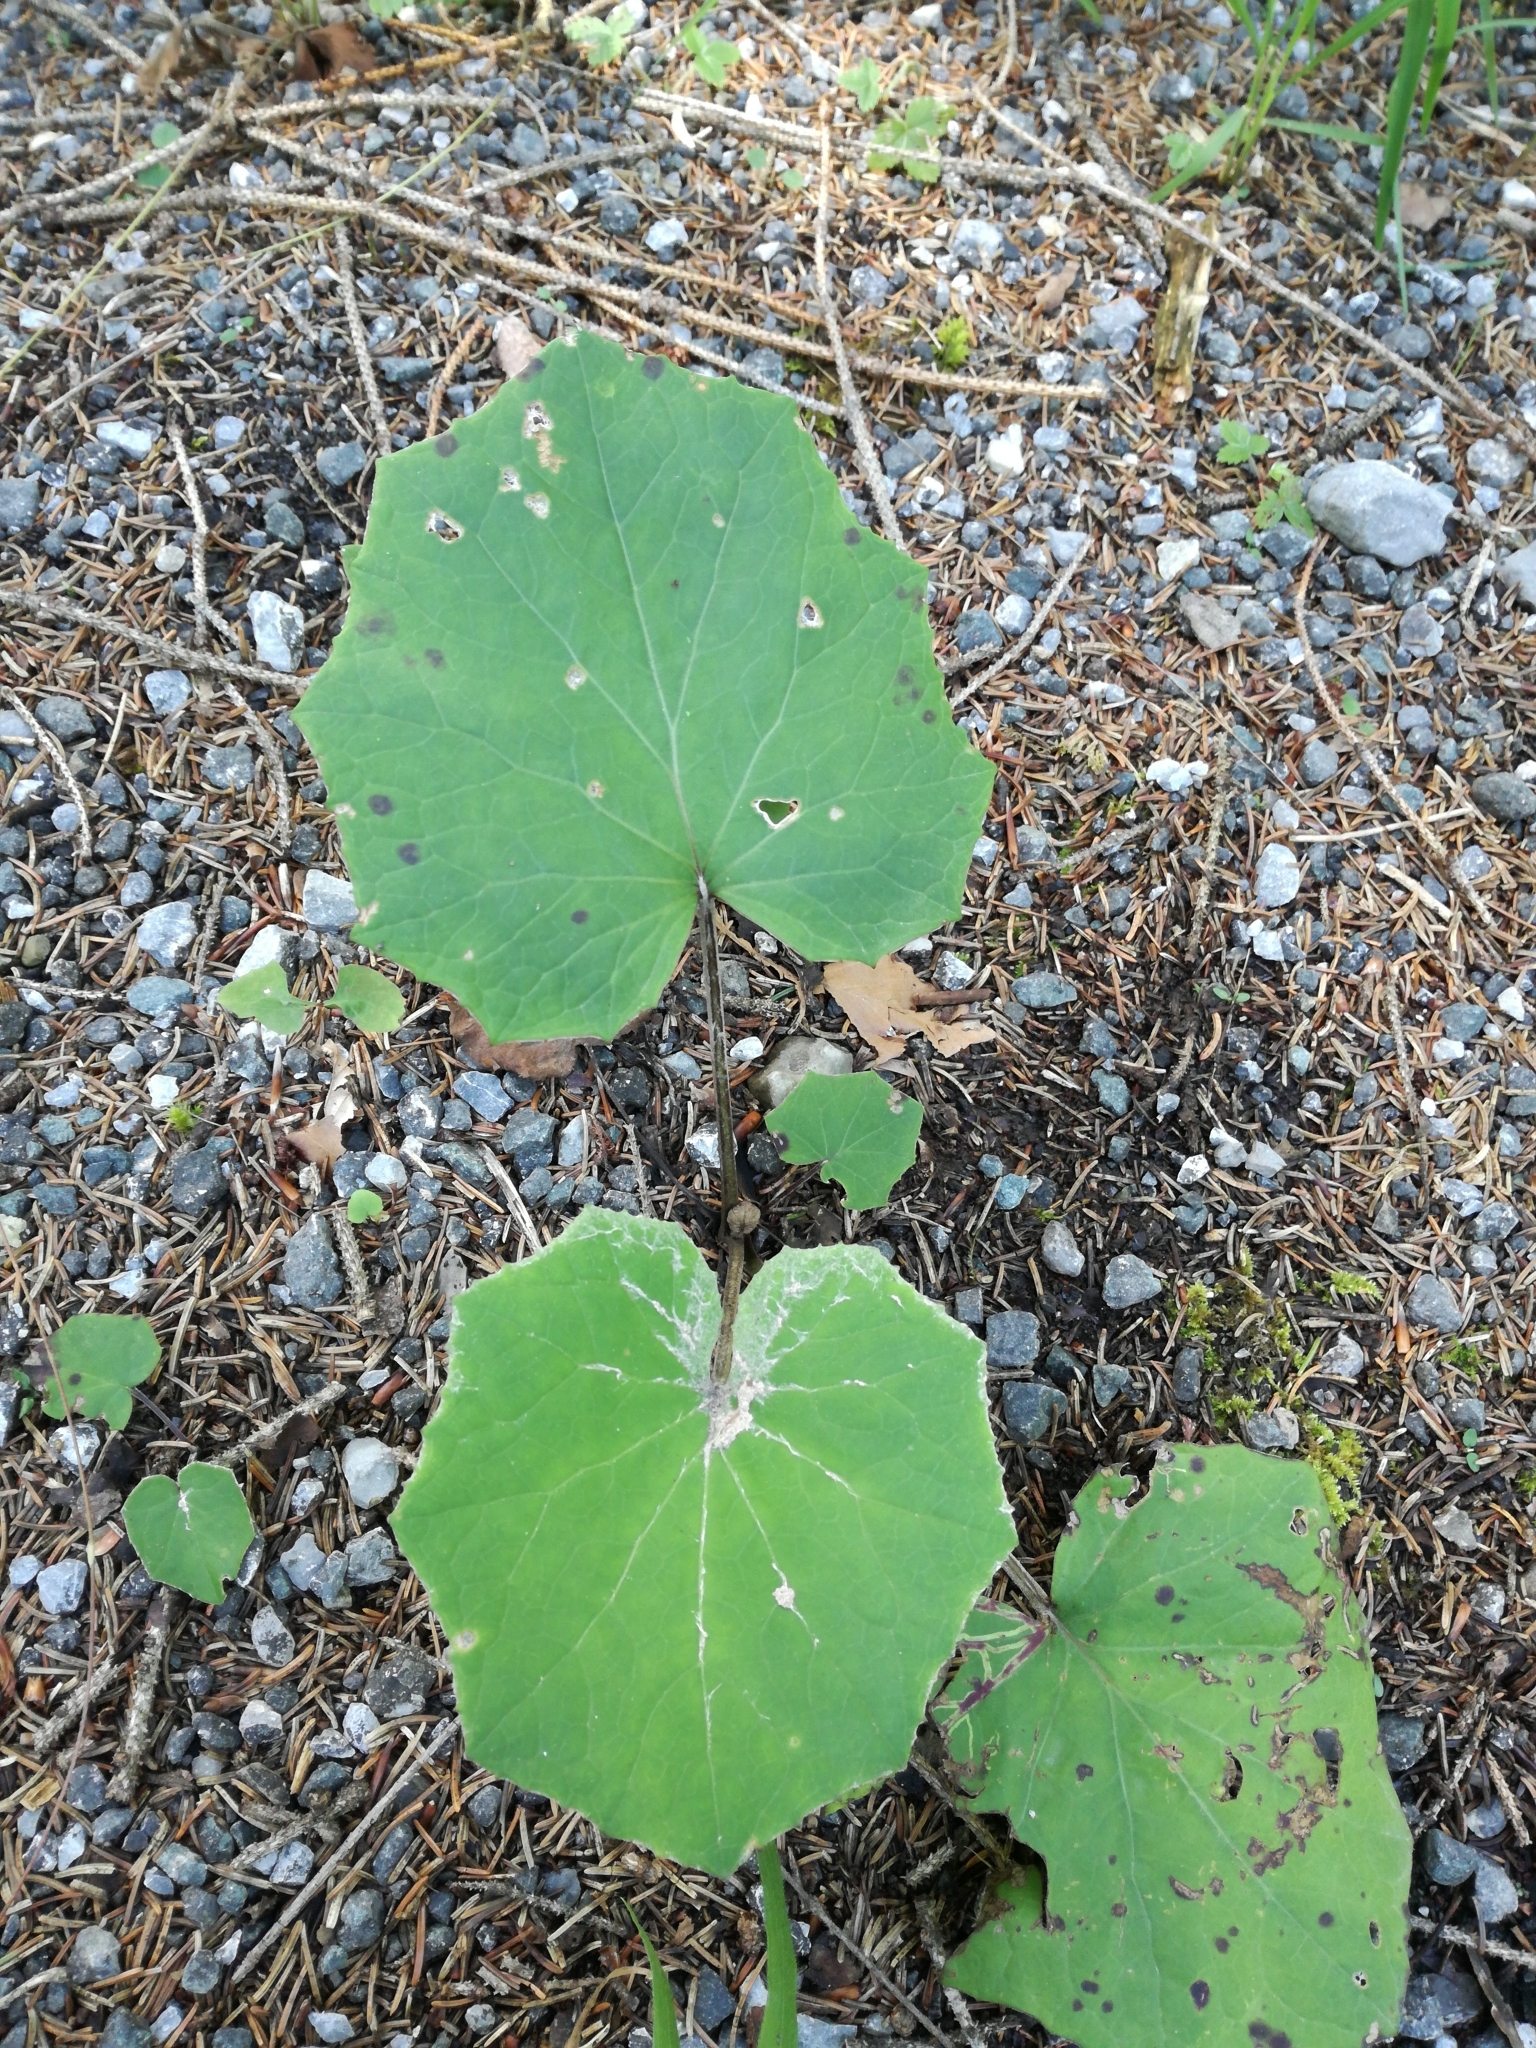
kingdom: Plantae
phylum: Tracheophyta
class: Magnoliopsida
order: Asterales
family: Asteraceae
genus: Tussilago
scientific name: Tussilago farfara
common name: Coltsfoot
